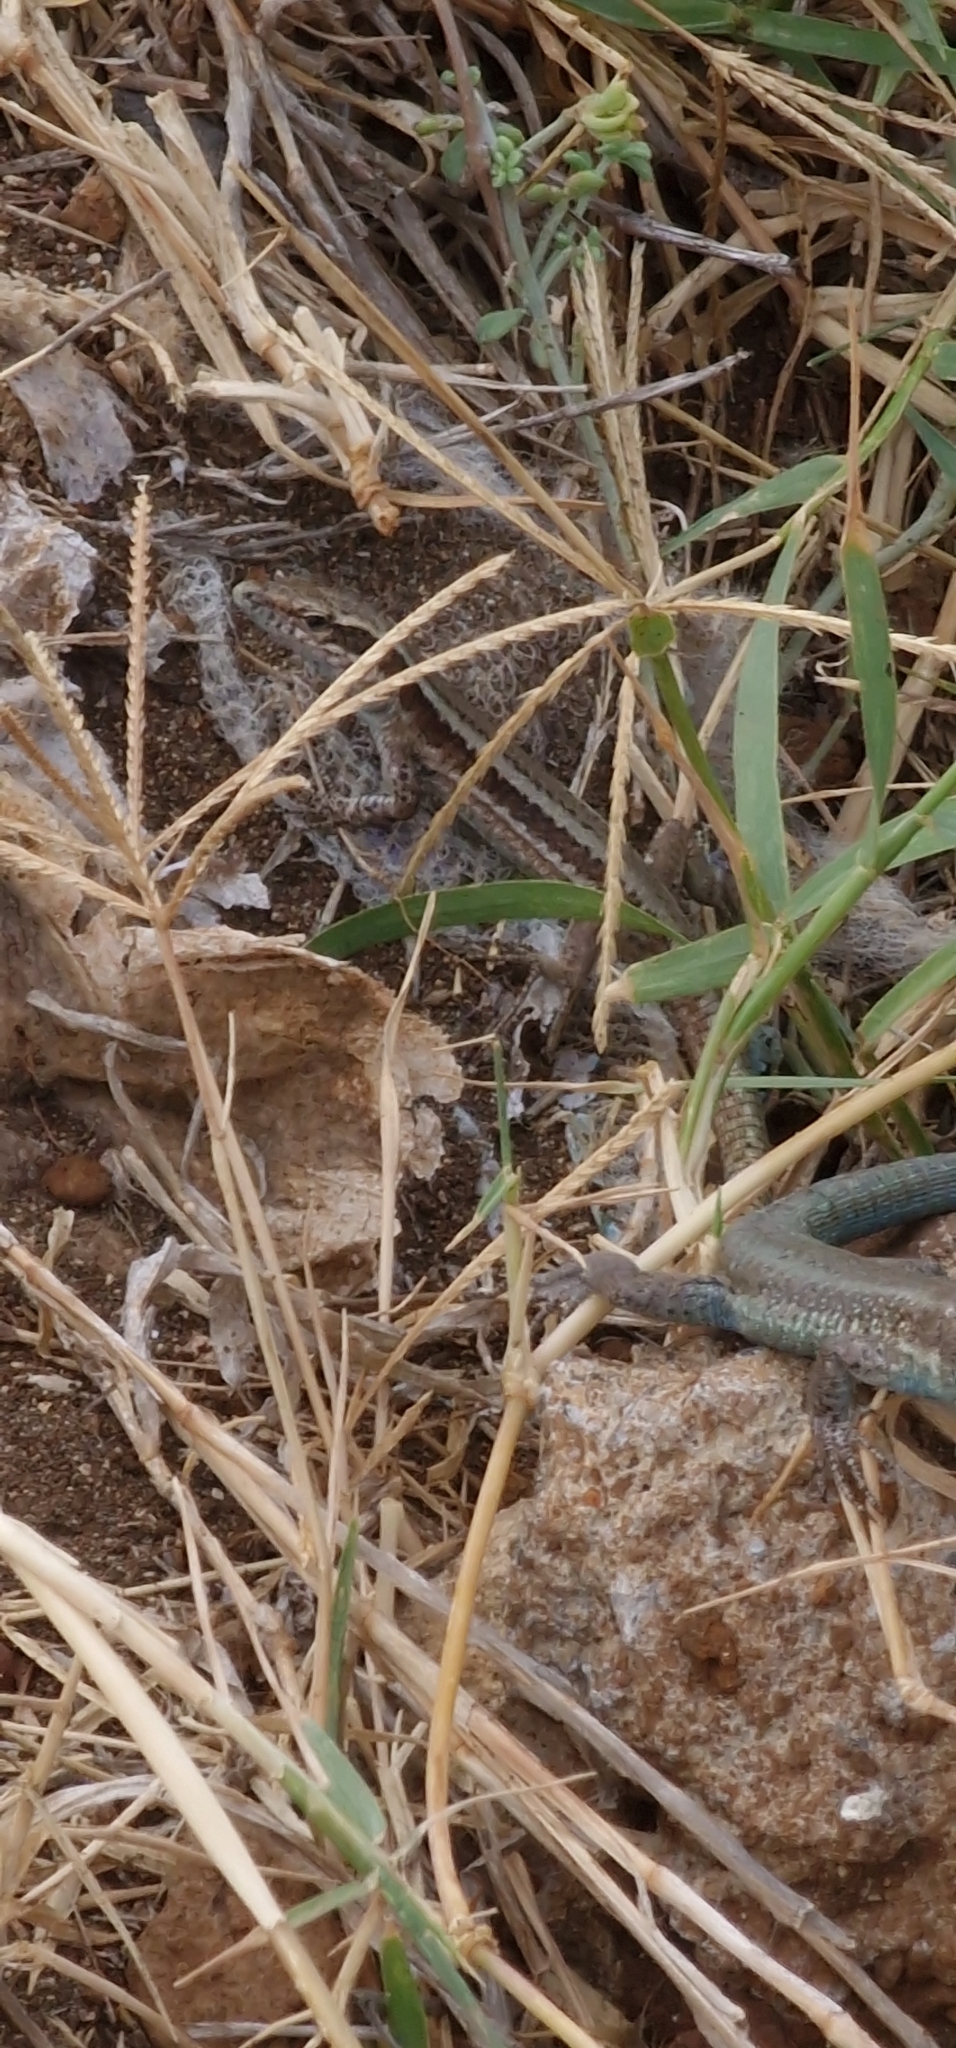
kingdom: Animalia
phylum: Chordata
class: Squamata
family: Lacertidae
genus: Teira
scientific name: Teira dugesii
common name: Madeira lizard
